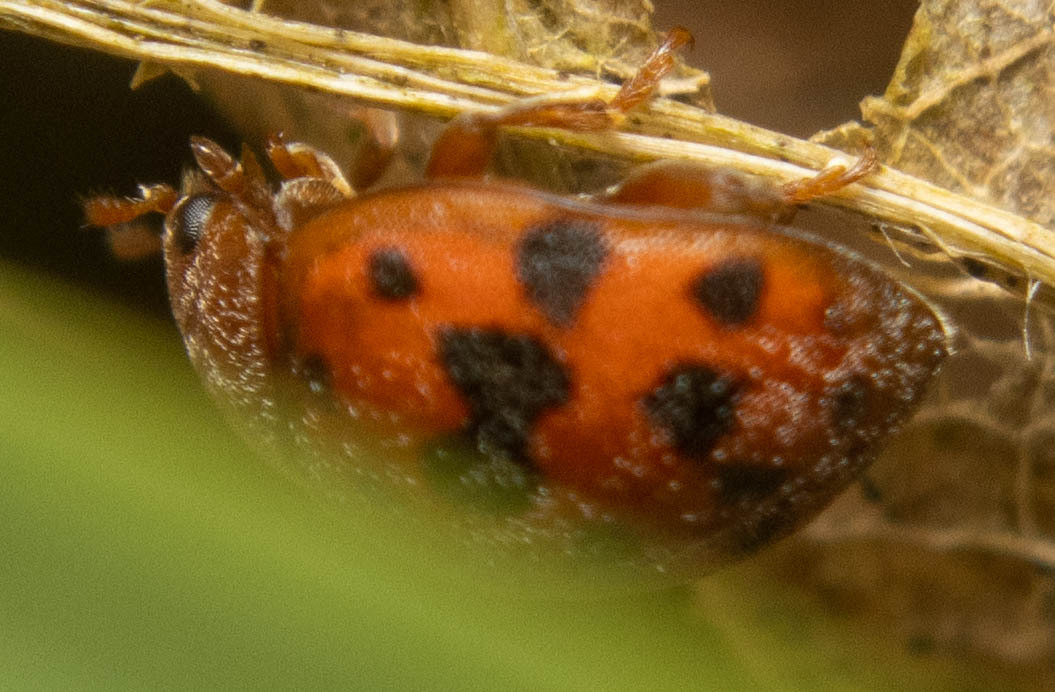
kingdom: Animalia
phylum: Arthropoda
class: Insecta
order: Coleoptera
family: Coccinellidae
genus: Subcoccinella
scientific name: Subcoccinella vigintiquatuorpunctata
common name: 24-spot ladybird
